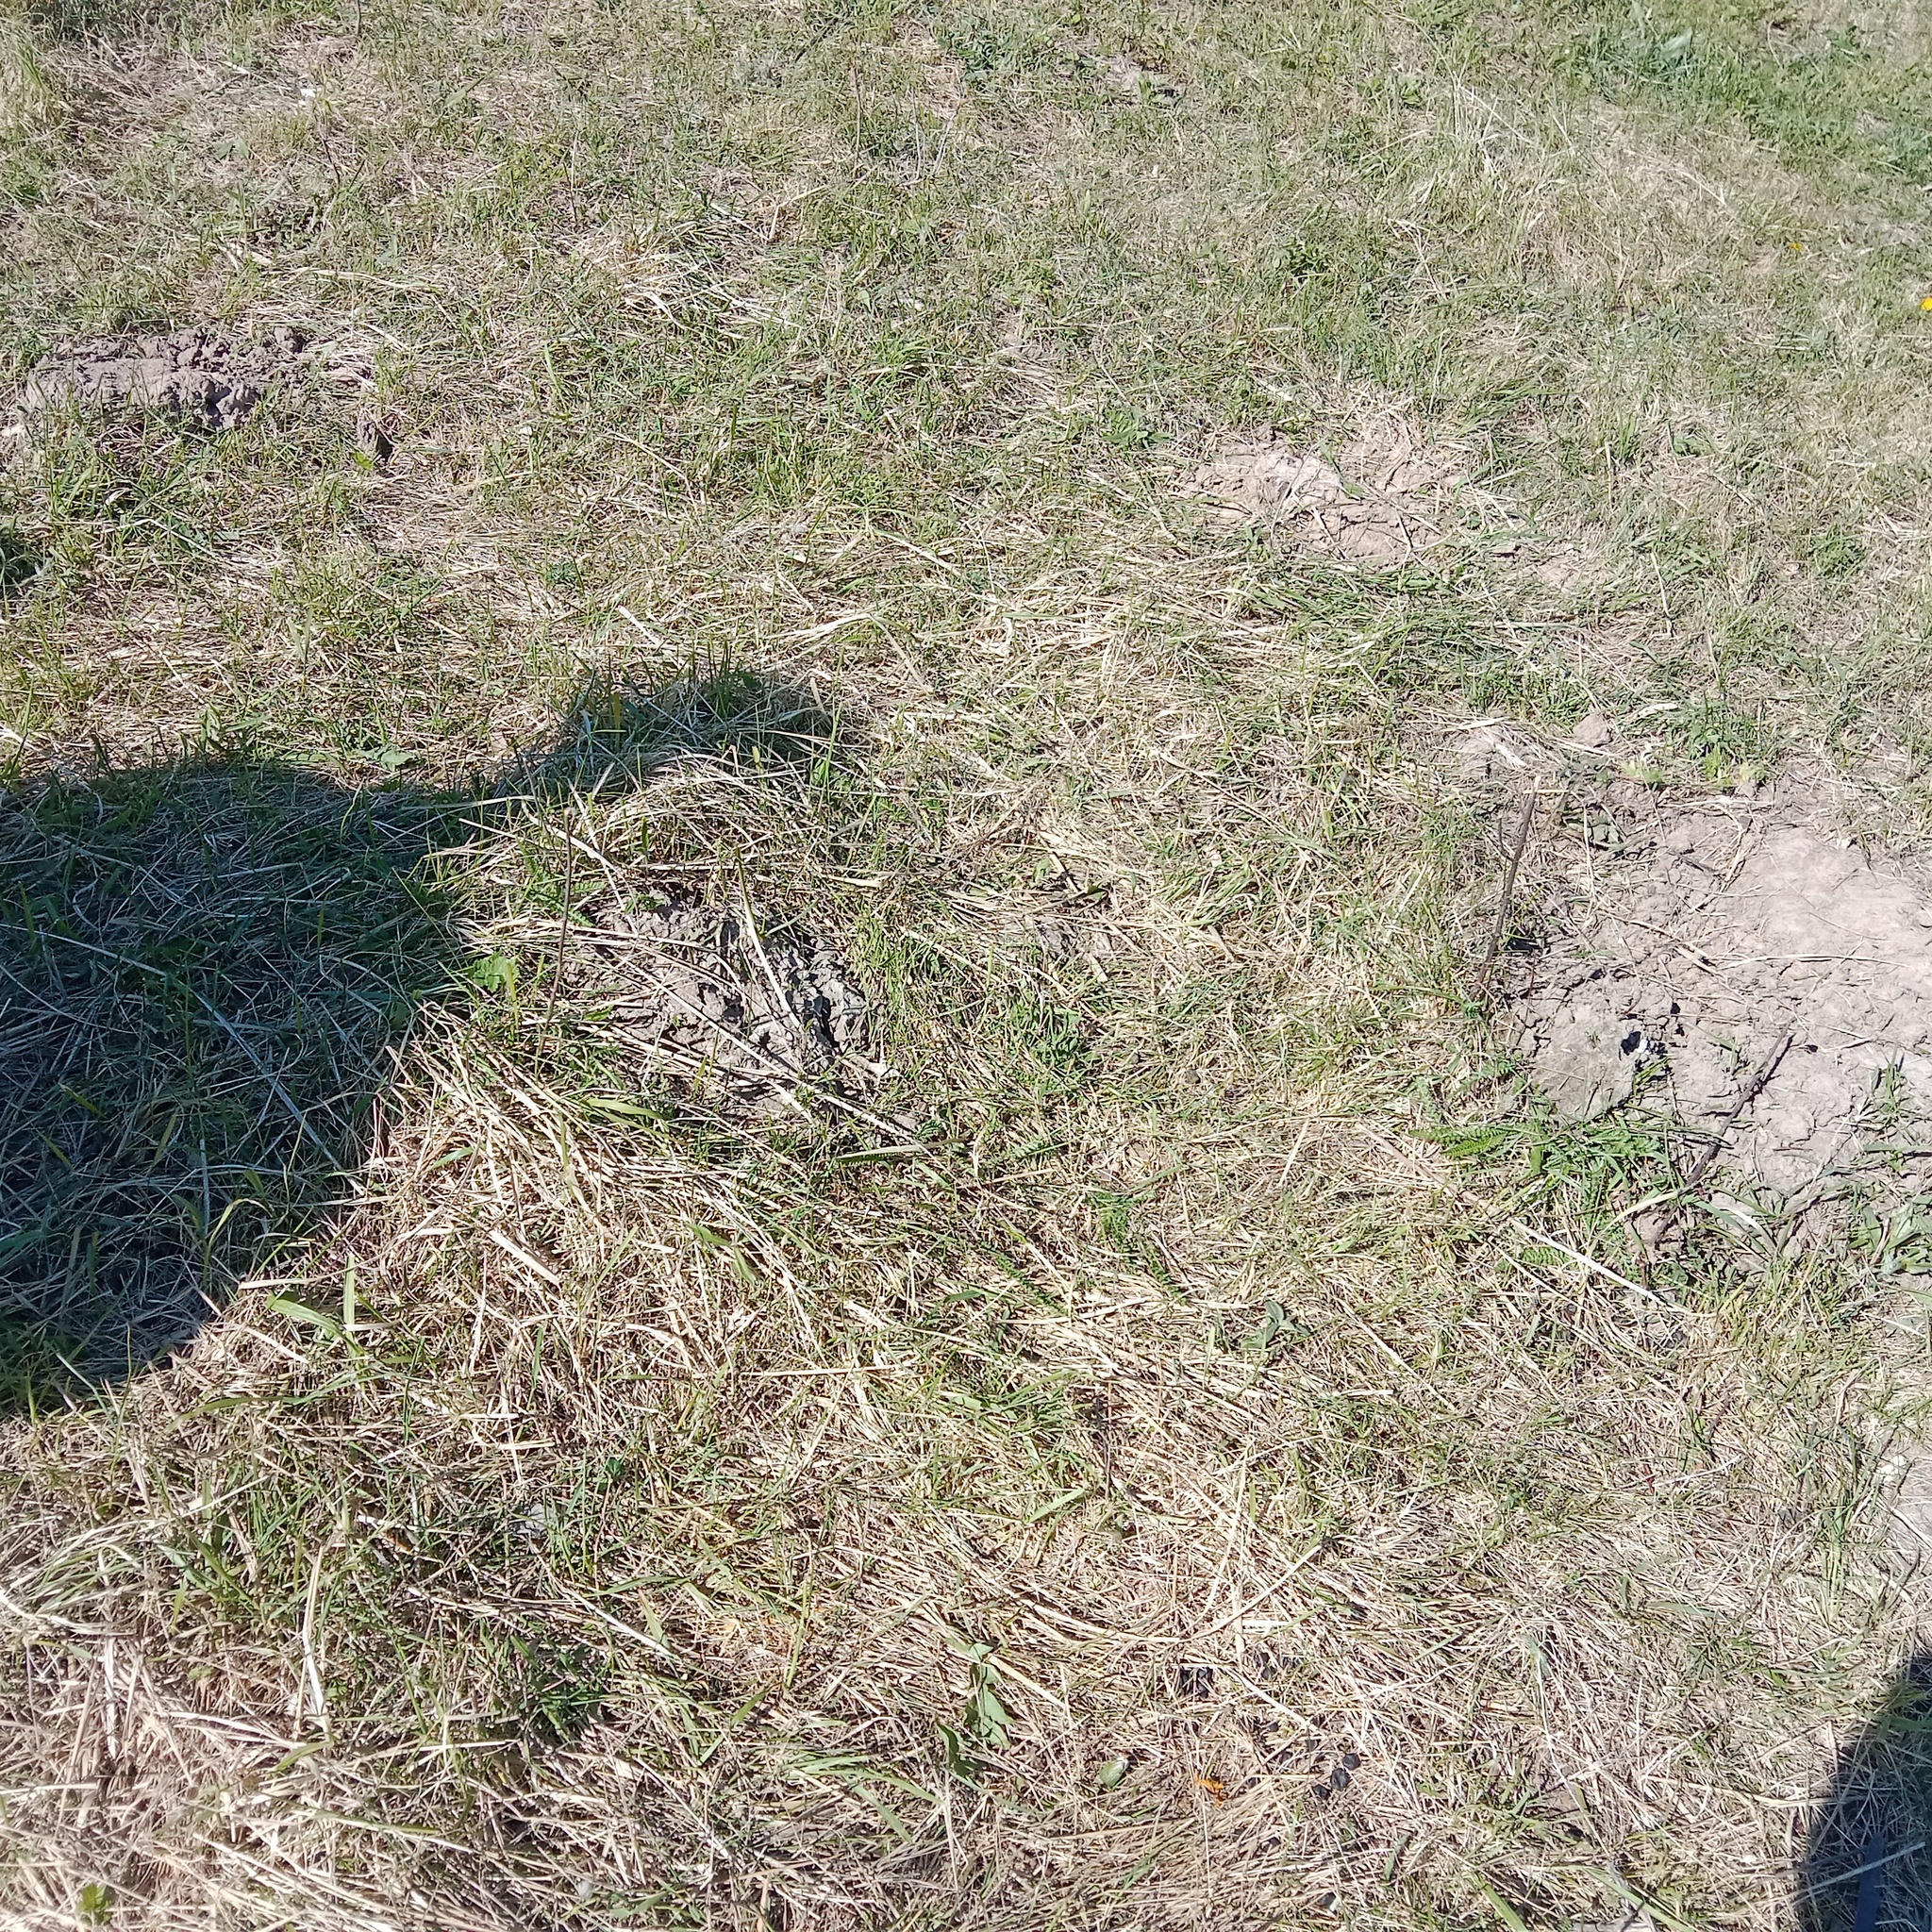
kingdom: Animalia
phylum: Chordata
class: Mammalia
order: Soricomorpha
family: Talpidae
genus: Talpa
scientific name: Talpa europaea
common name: European mole
